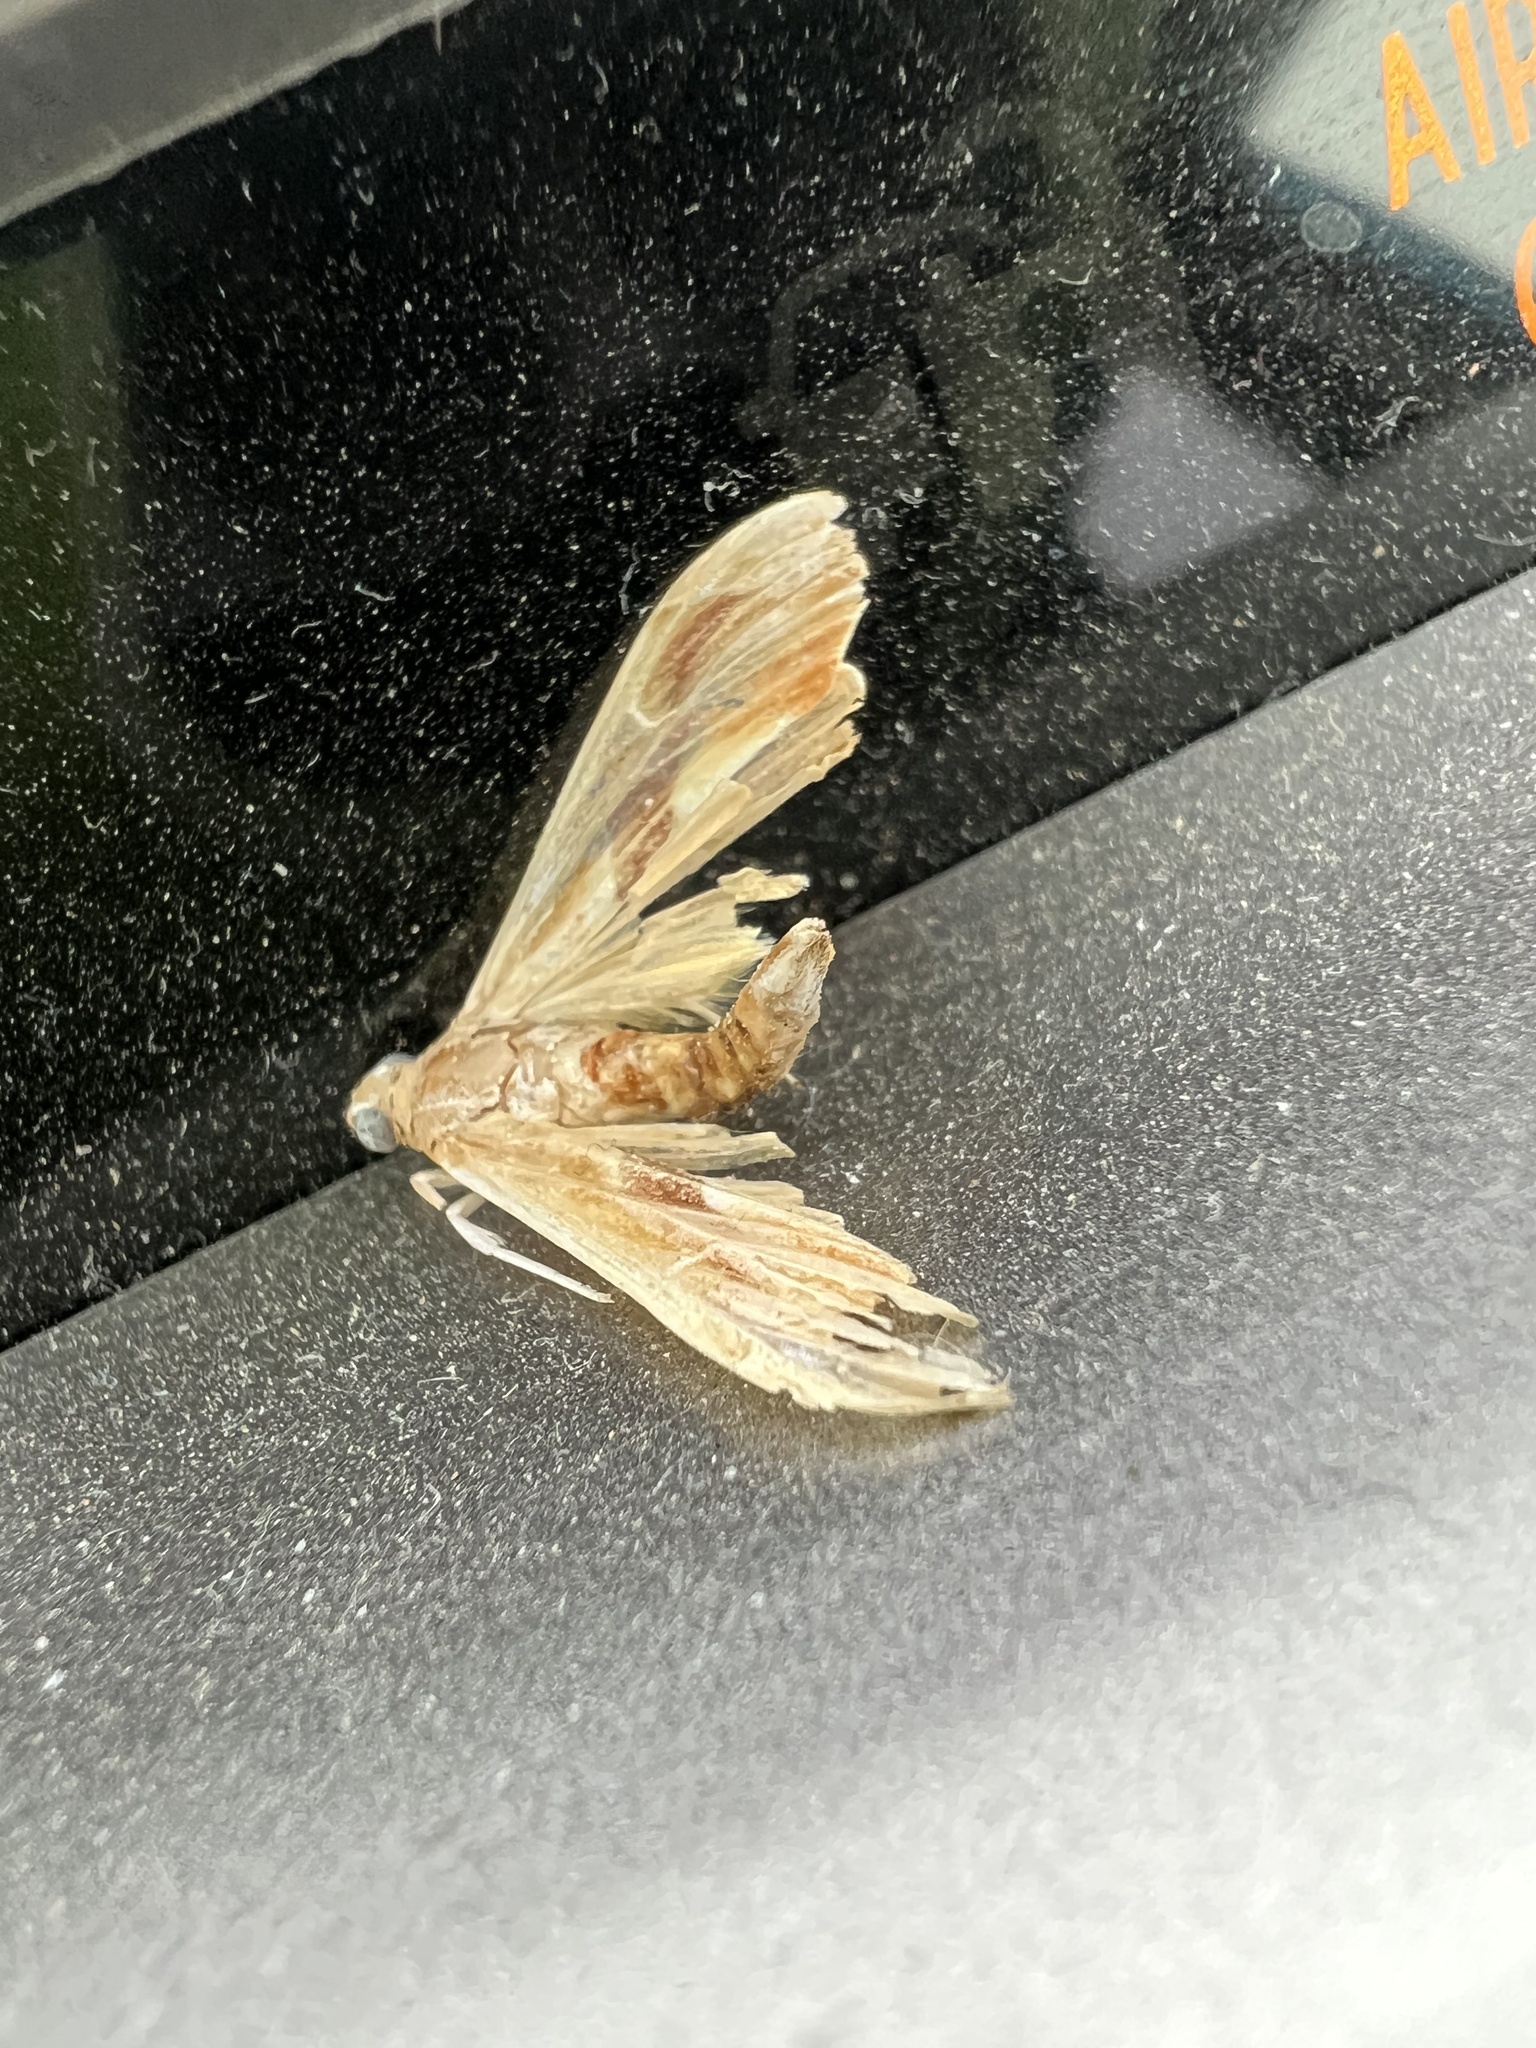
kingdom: Animalia
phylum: Arthropoda
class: Insecta
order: Lepidoptera
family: Crambidae
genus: Agathodes
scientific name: Agathodes monstralis
